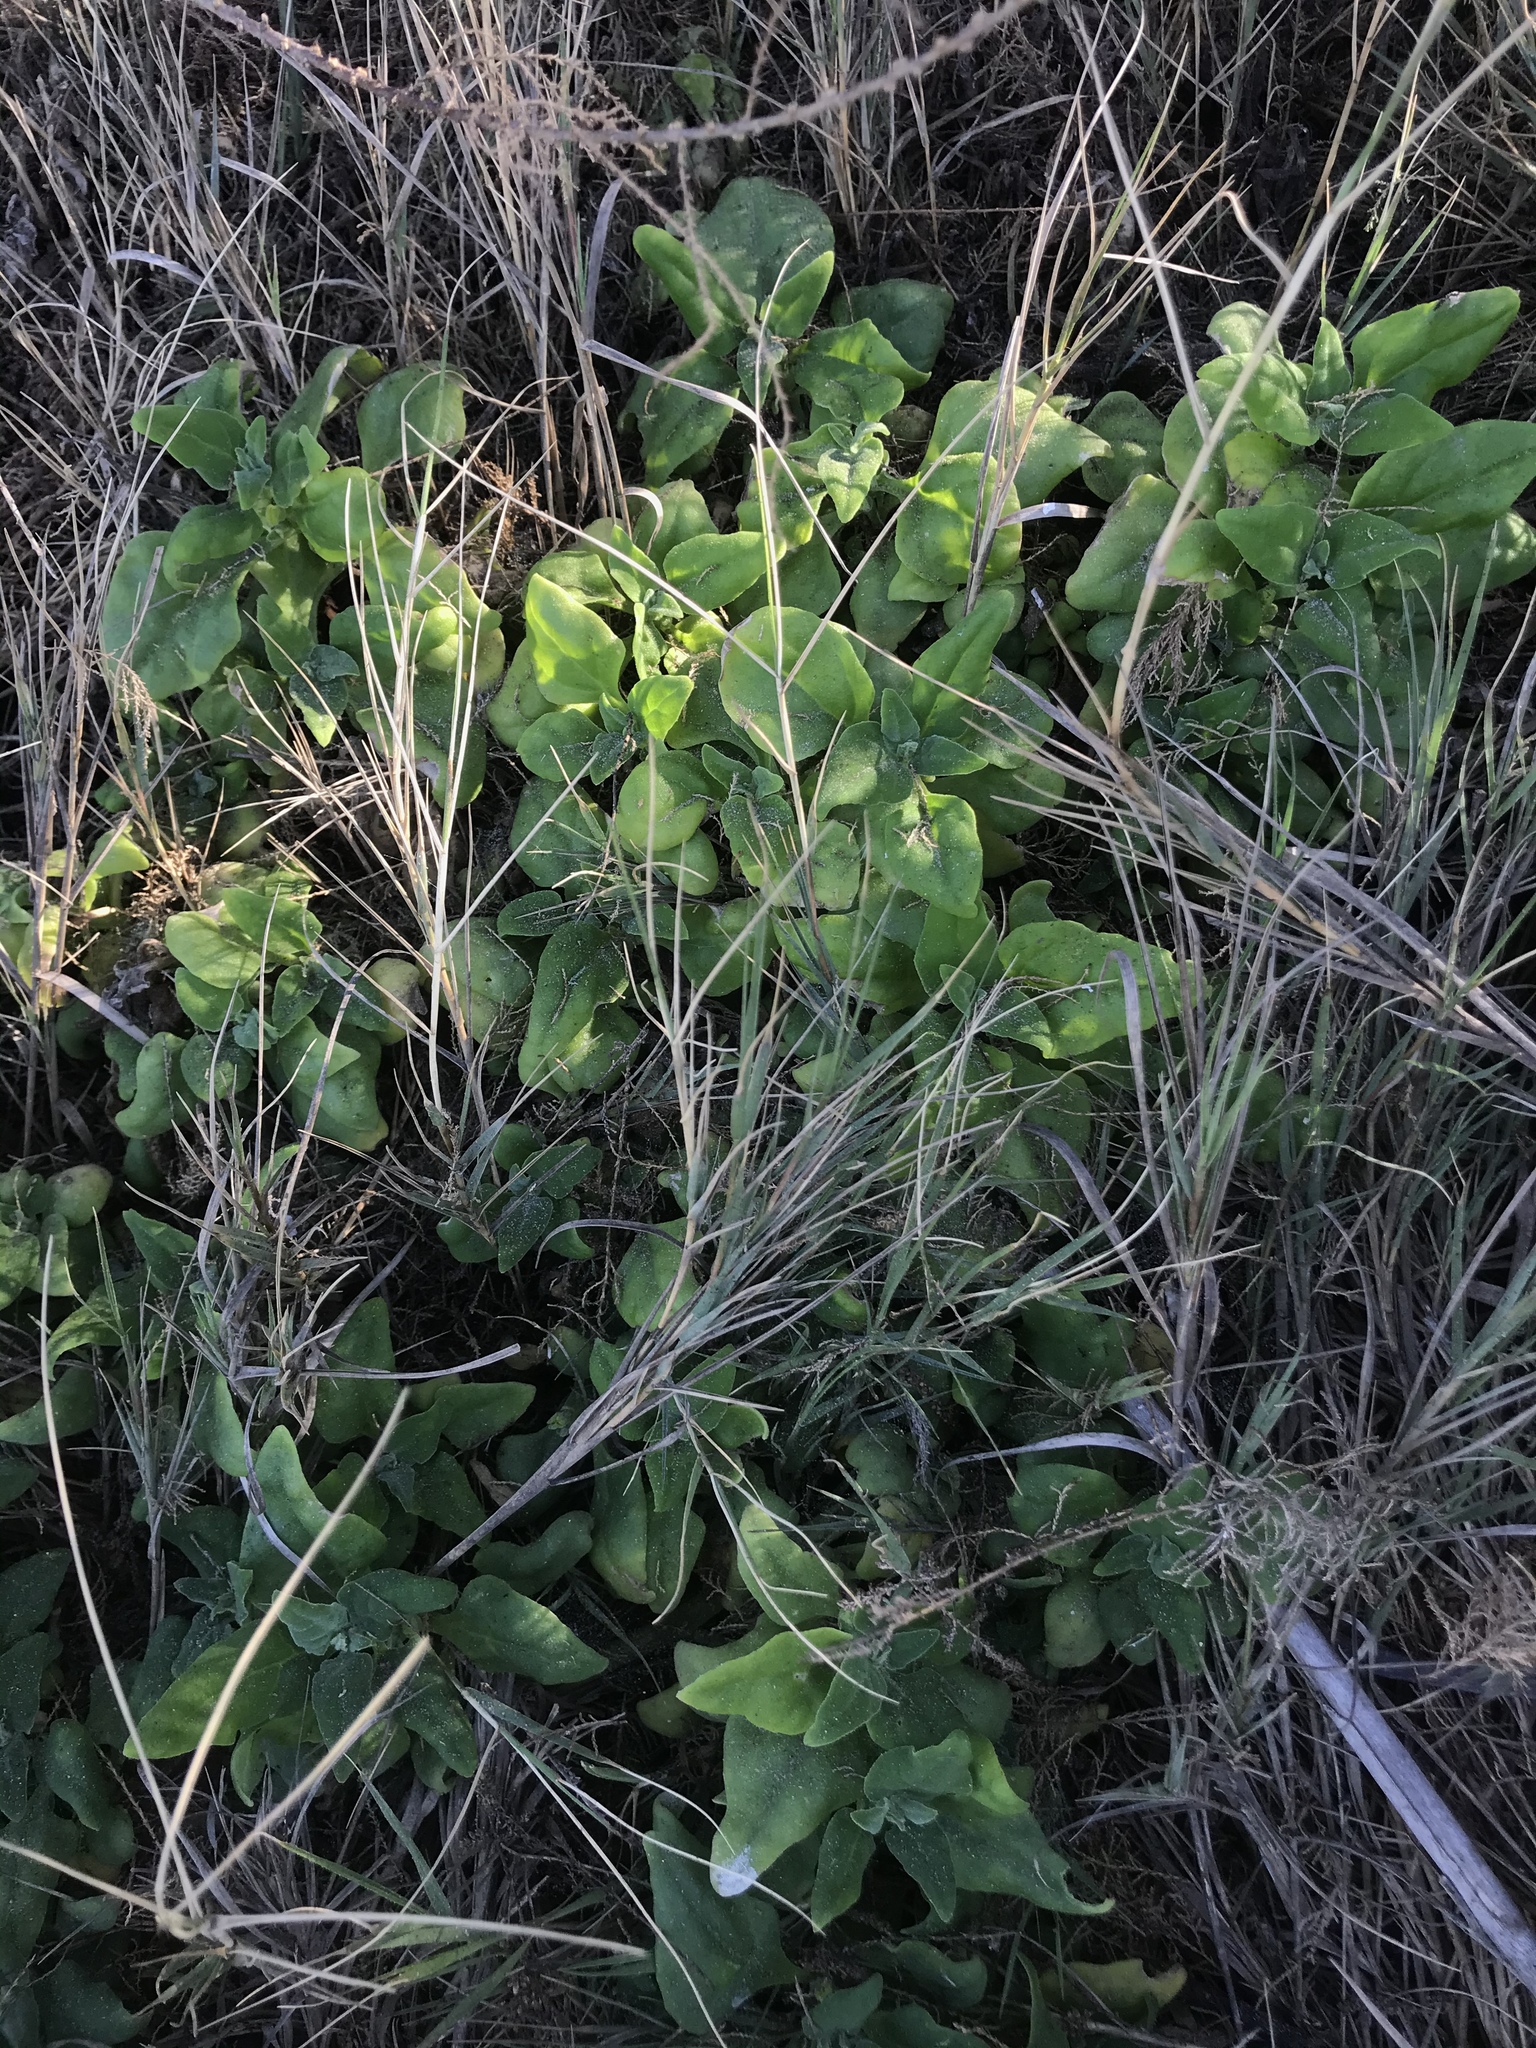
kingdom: Plantae
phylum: Tracheophyta
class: Magnoliopsida
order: Caryophyllales
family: Aizoaceae
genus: Tetragonia
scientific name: Tetragonia tetragonoides
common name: New zealand-spinach
